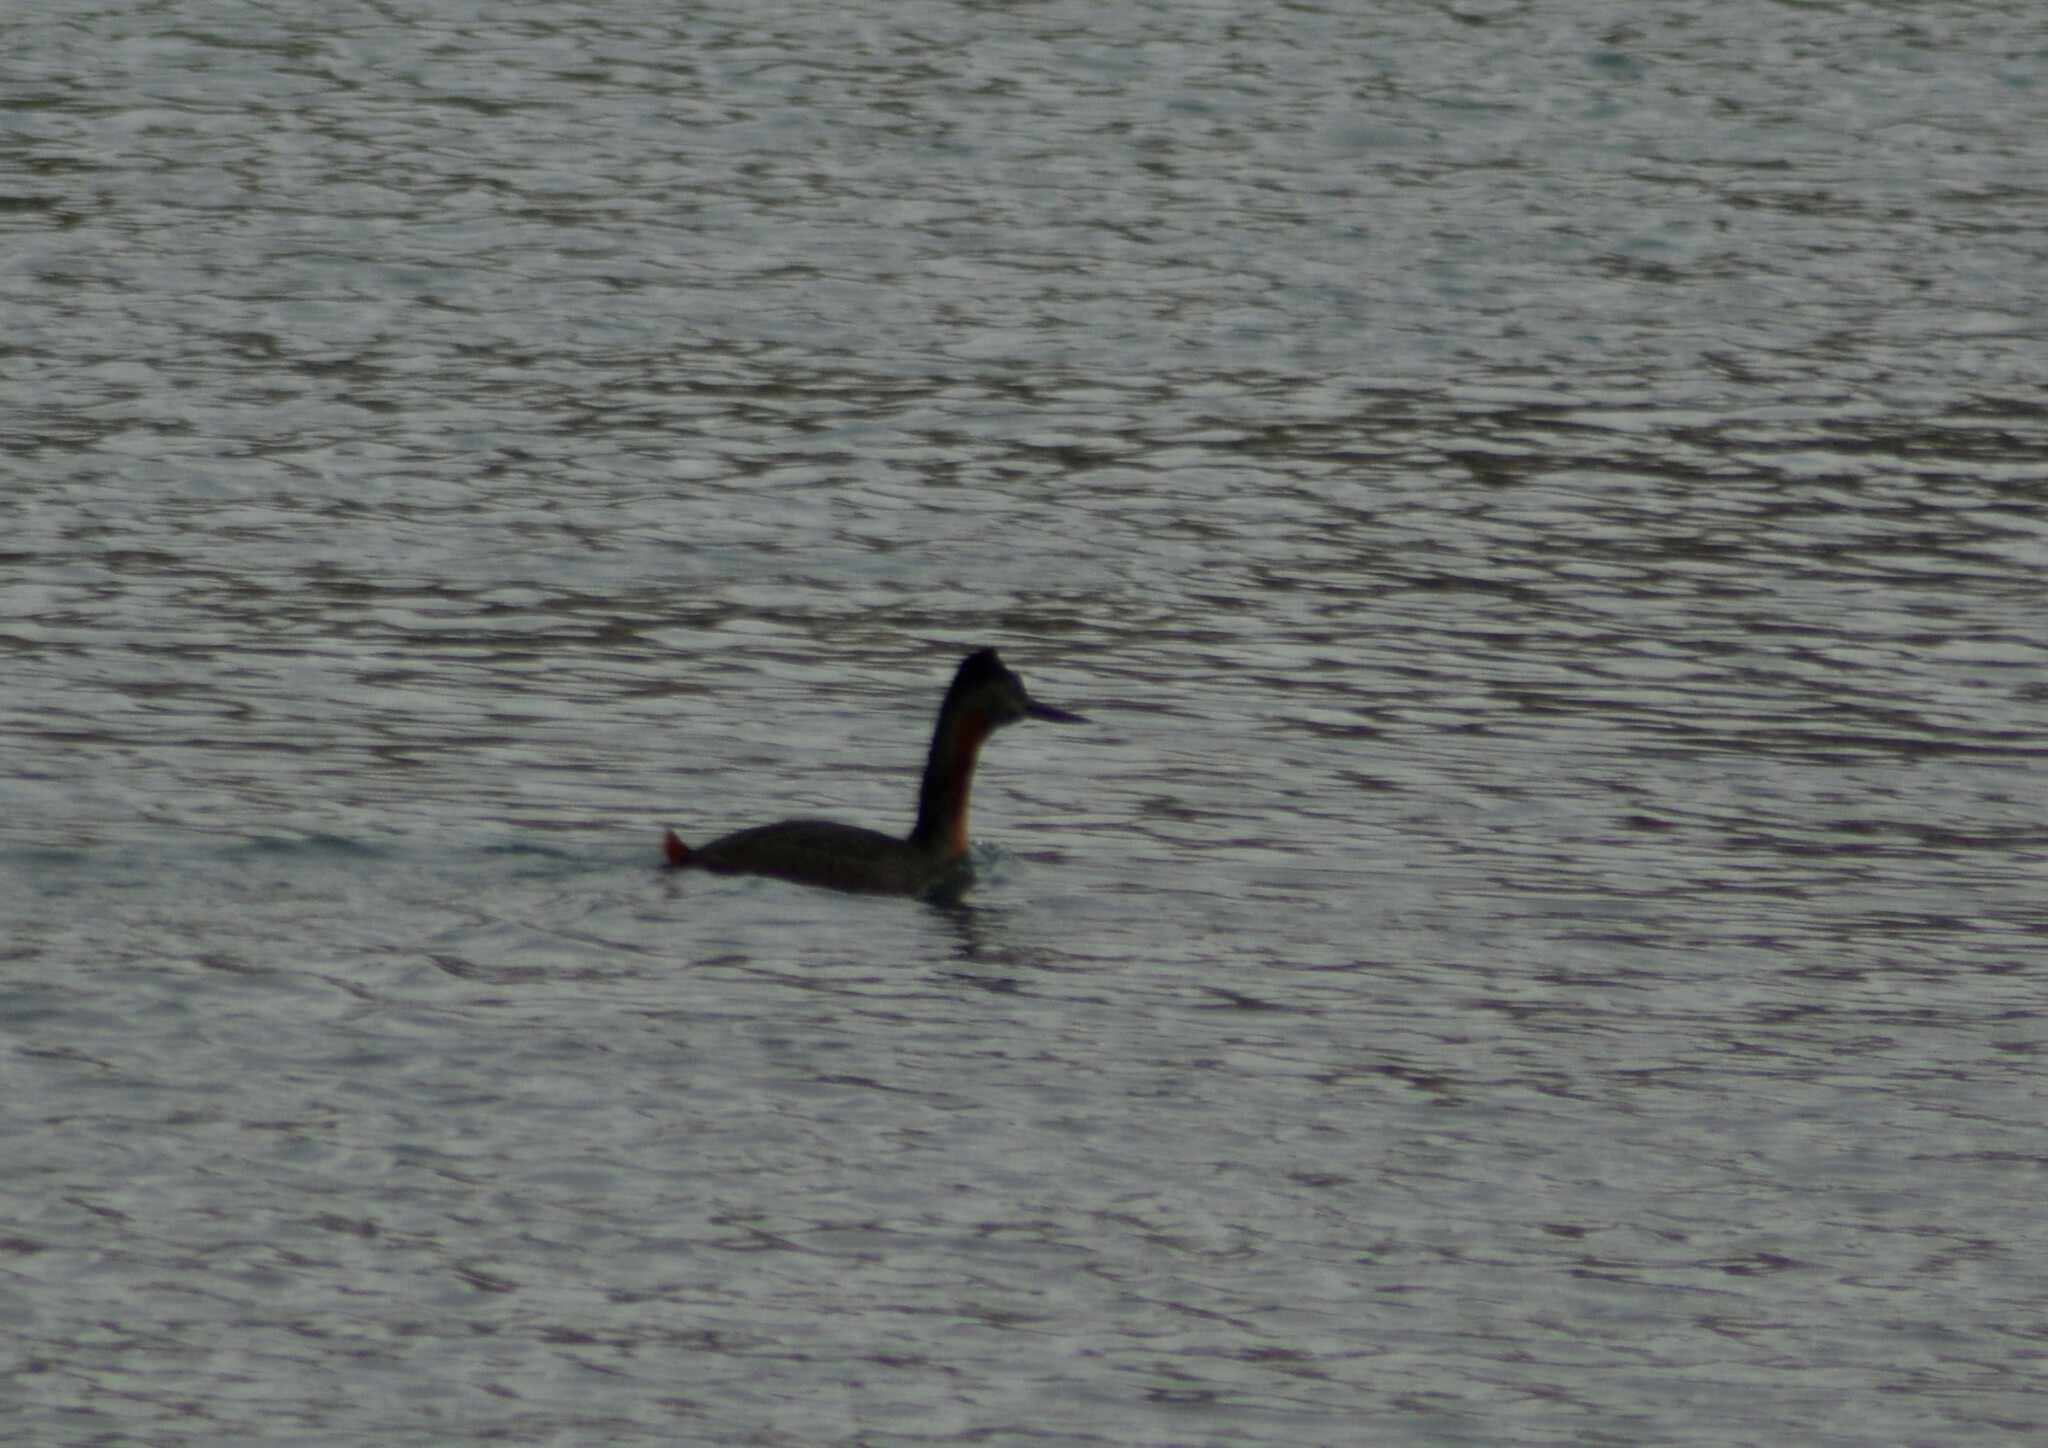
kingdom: Animalia
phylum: Chordata
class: Aves
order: Podicipediformes
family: Podicipedidae
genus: Podiceps
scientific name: Podiceps major
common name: Great grebe
